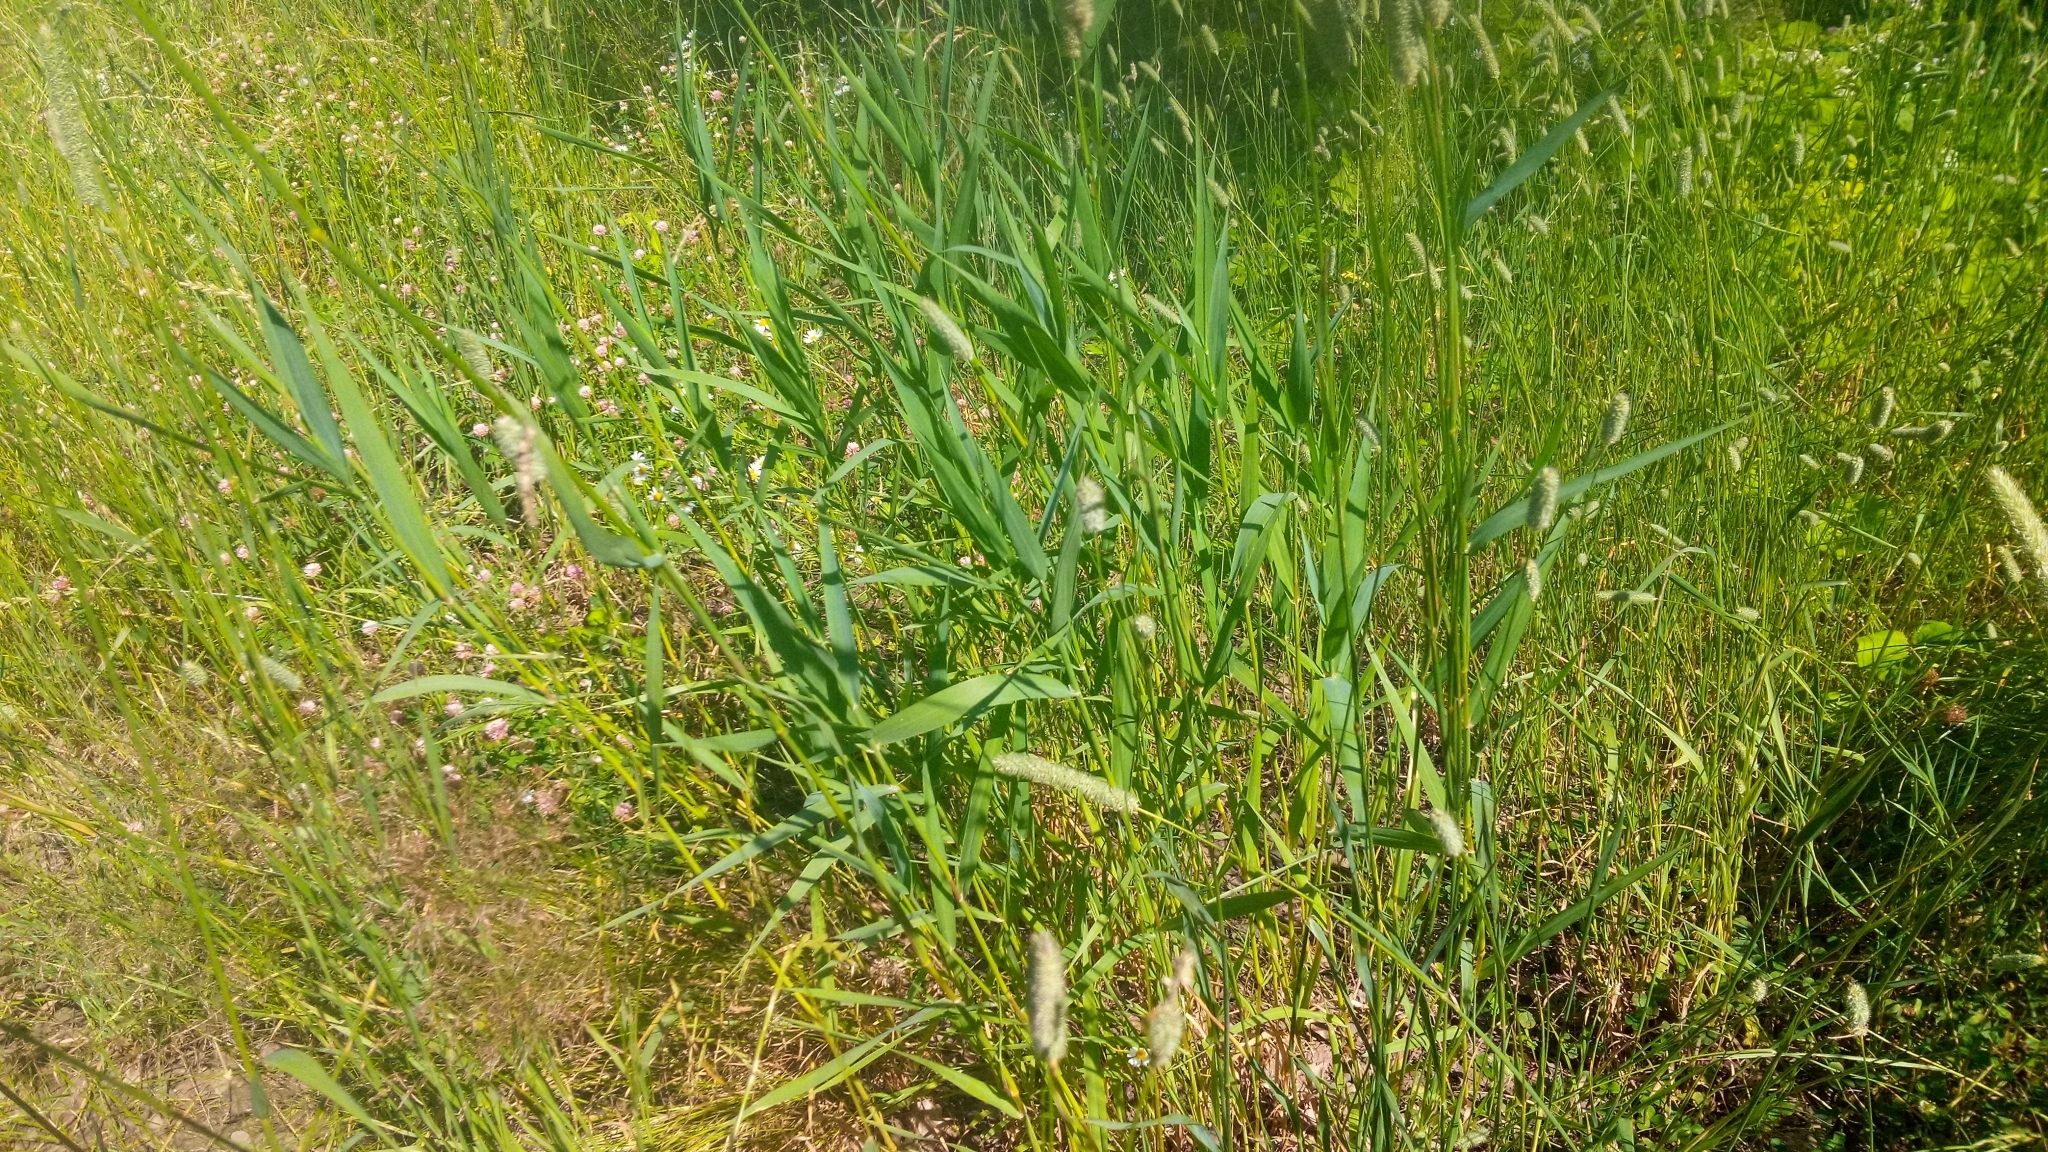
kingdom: Plantae
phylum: Tracheophyta
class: Liliopsida
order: Poales
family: Poaceae
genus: Phalaris
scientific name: Phalaris arundinacea
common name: Reed canary-grass
